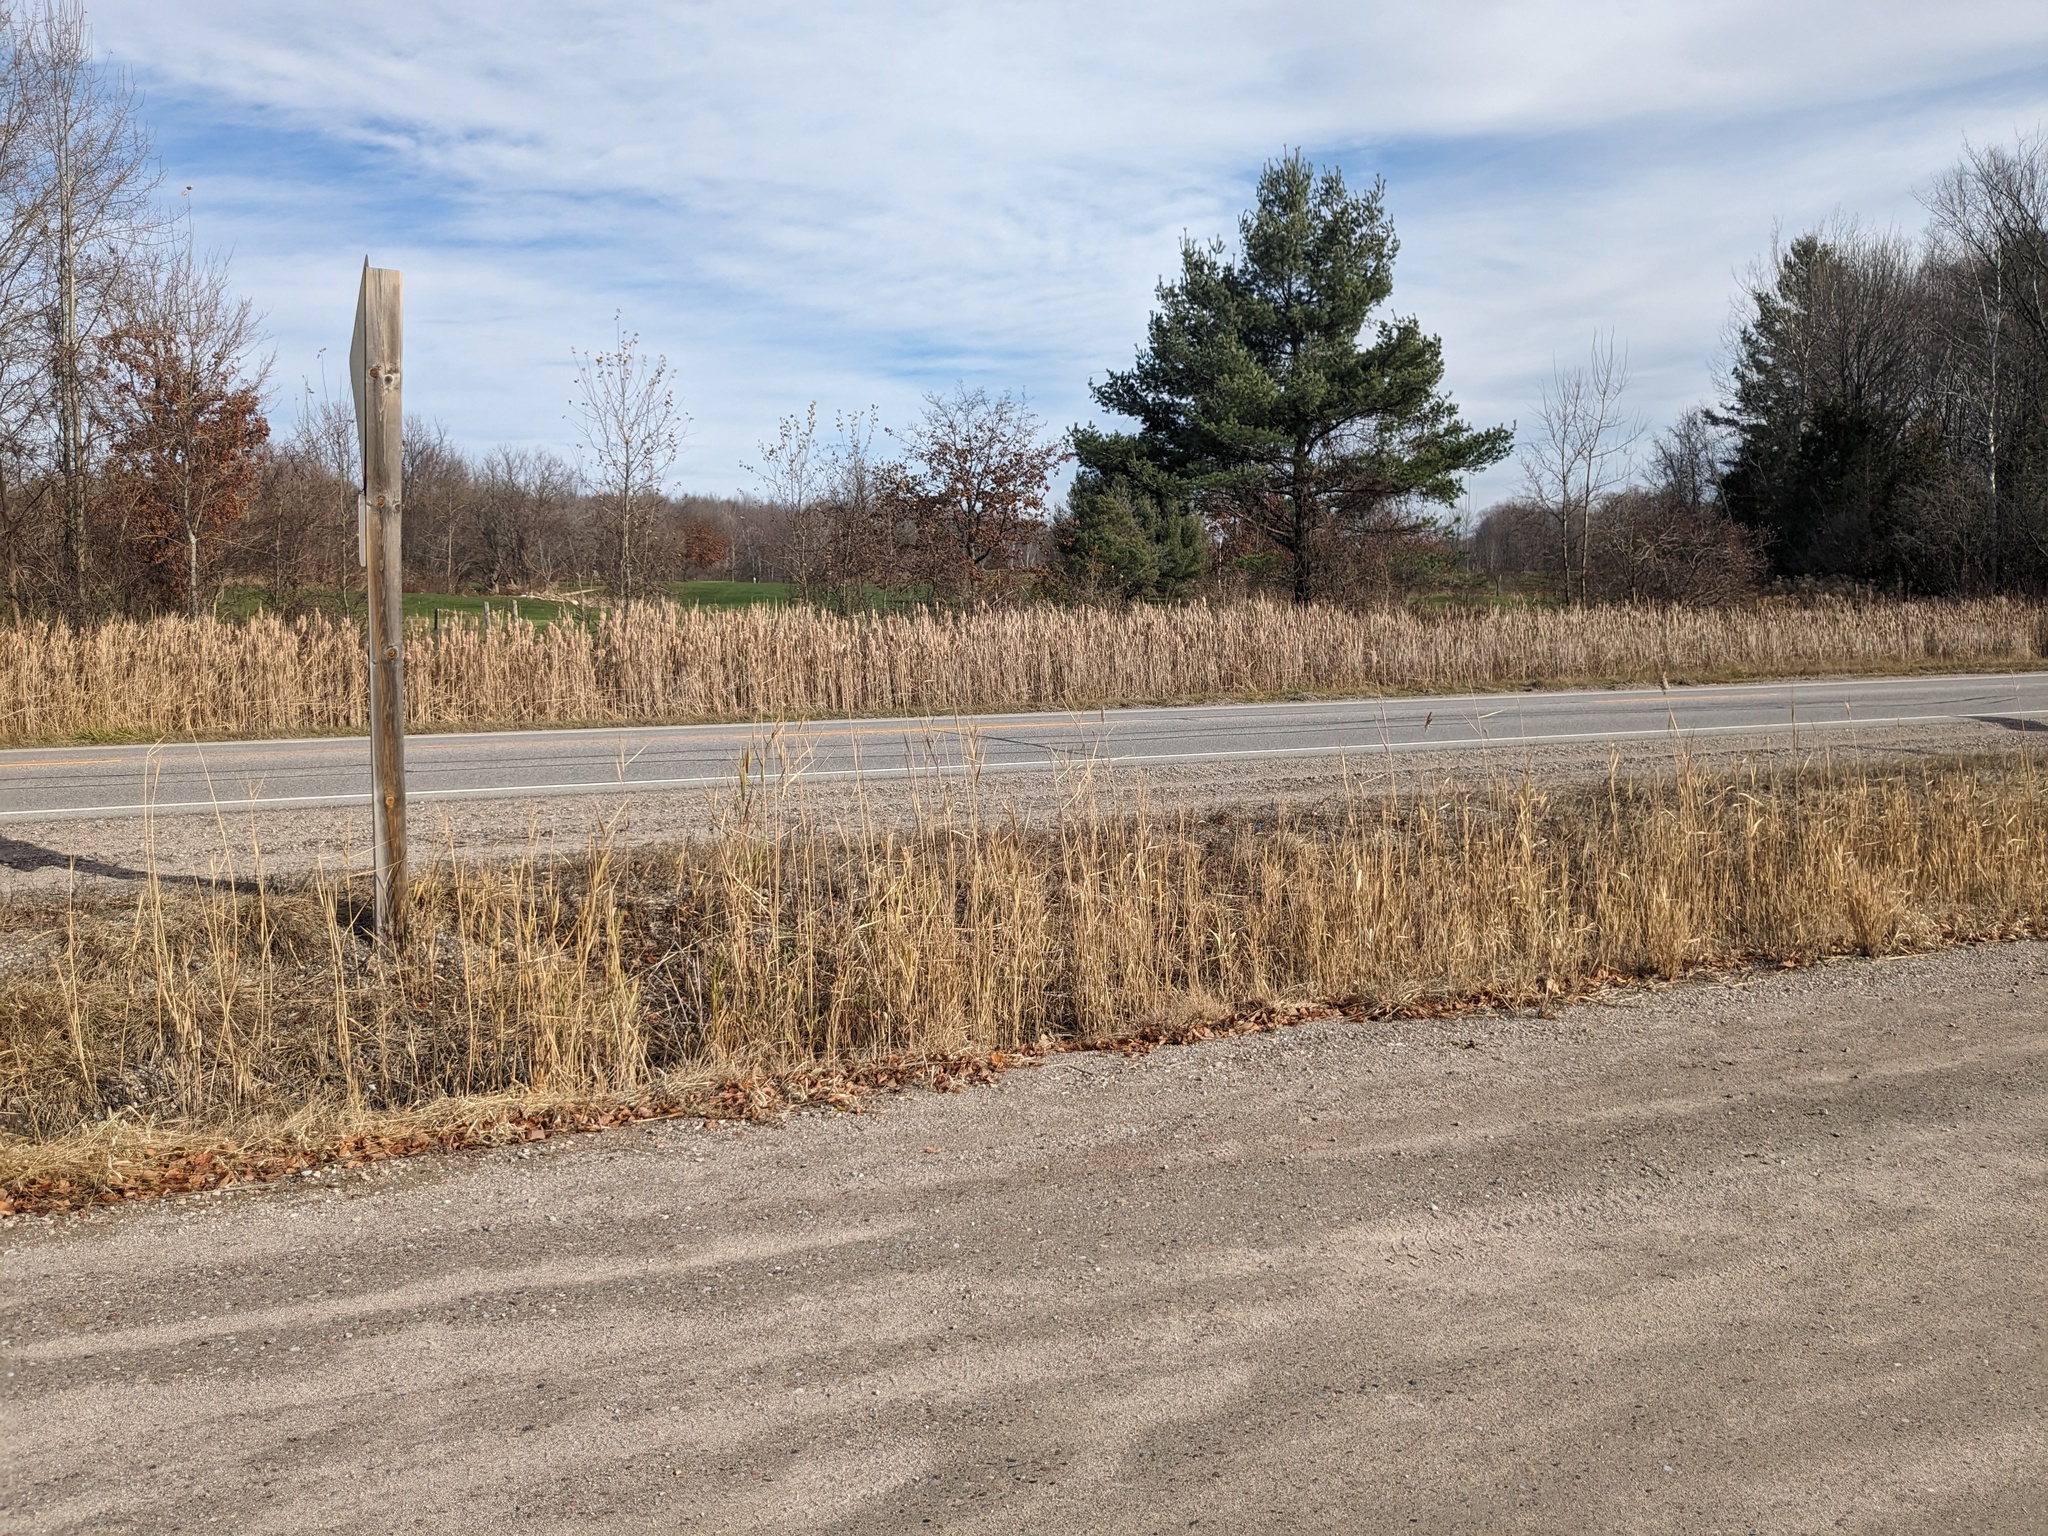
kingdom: Plantae
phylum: Tracheophyta
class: Liliopsida
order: Poales
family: Poaceae
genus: Phragmites
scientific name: Phragmites australis
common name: Common reed
